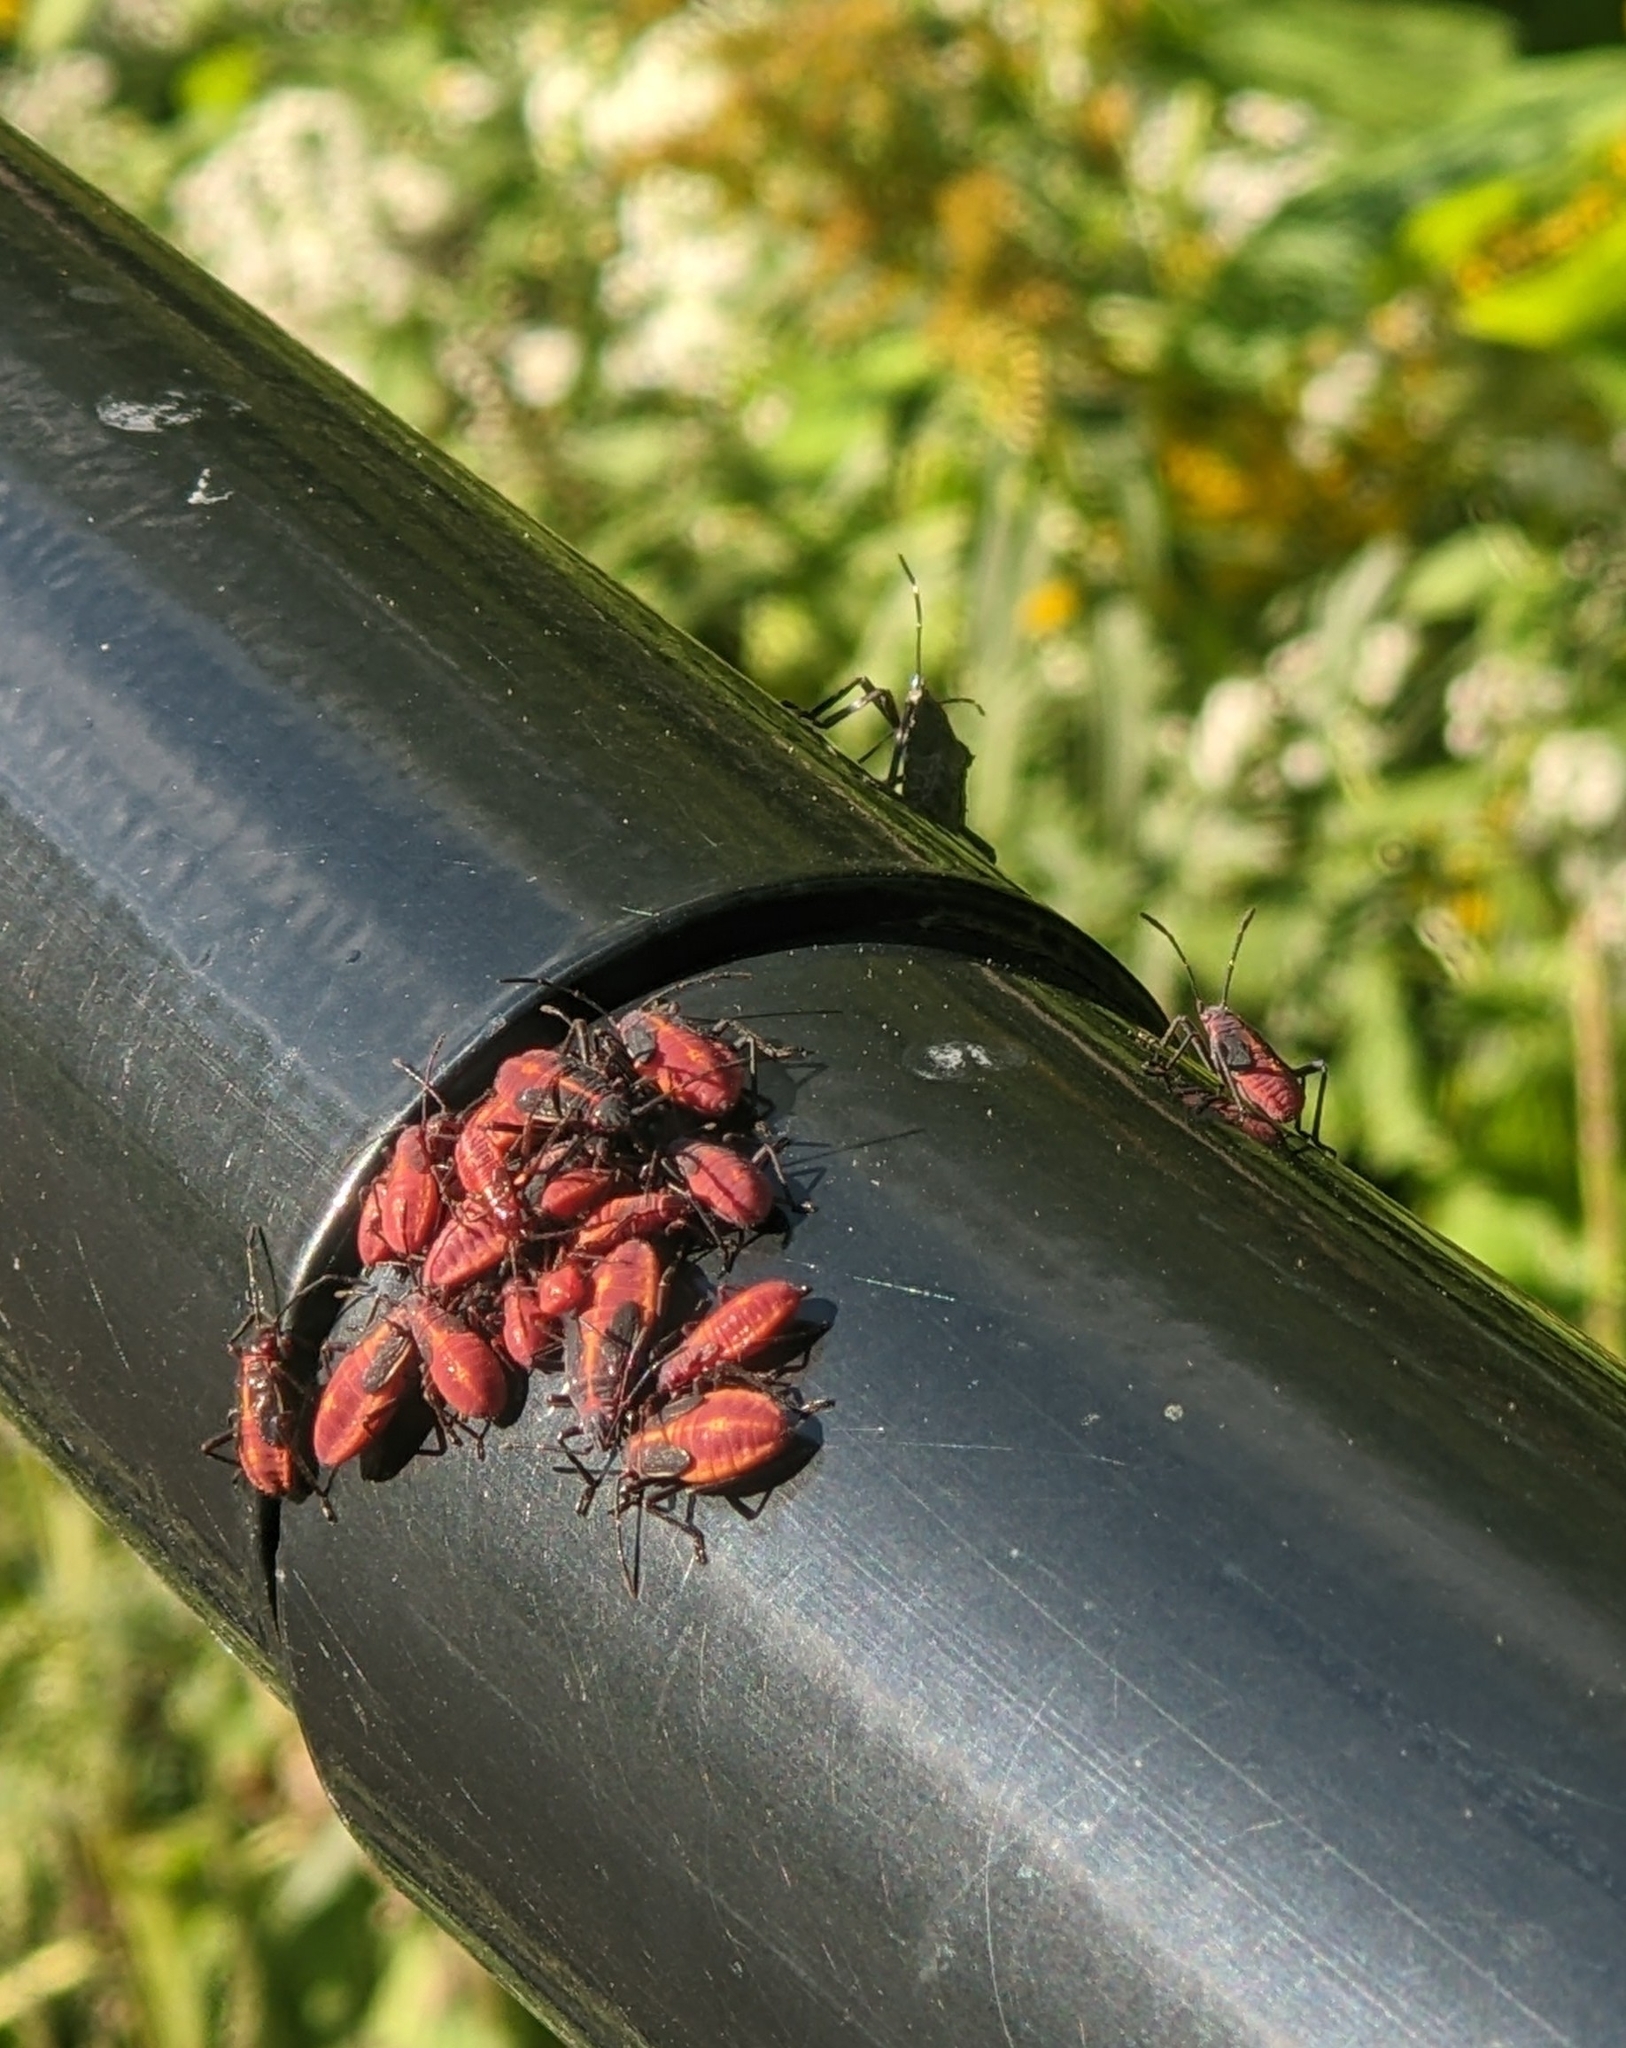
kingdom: Animalia
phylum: Arthropoda
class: Insecta
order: Hemiptera
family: Rhopalidae
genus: Boisea
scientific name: Boisea trivittata
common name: Boxelder bug
